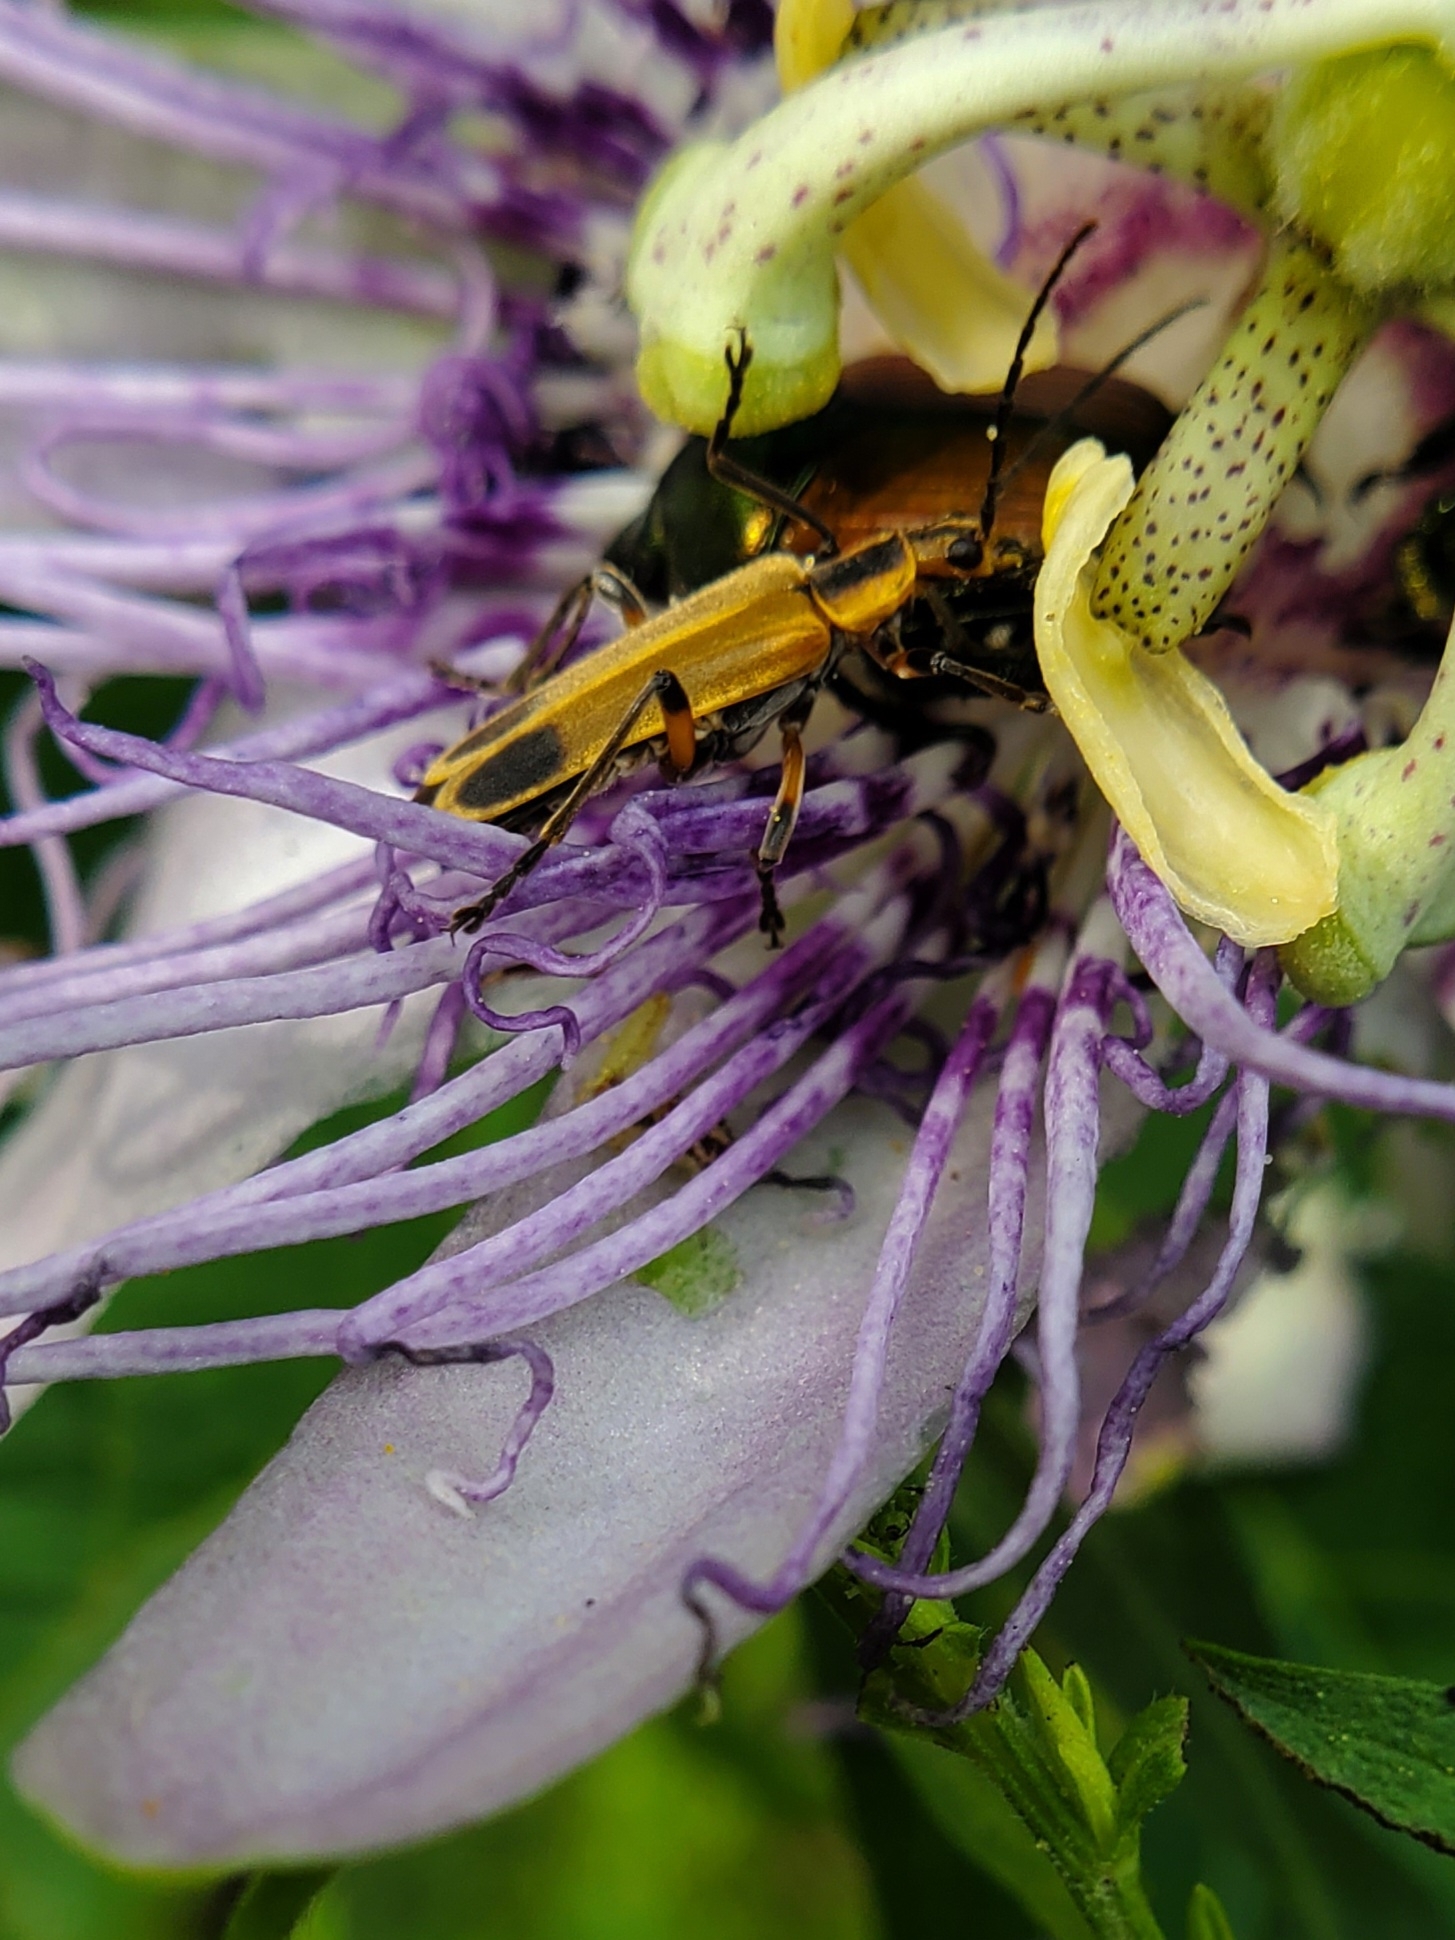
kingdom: Animalia
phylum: Arthropoda
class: Insecta
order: Coleoptera
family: Cantharidae
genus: Chauliognathus
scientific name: Chauliognathus marginatus
